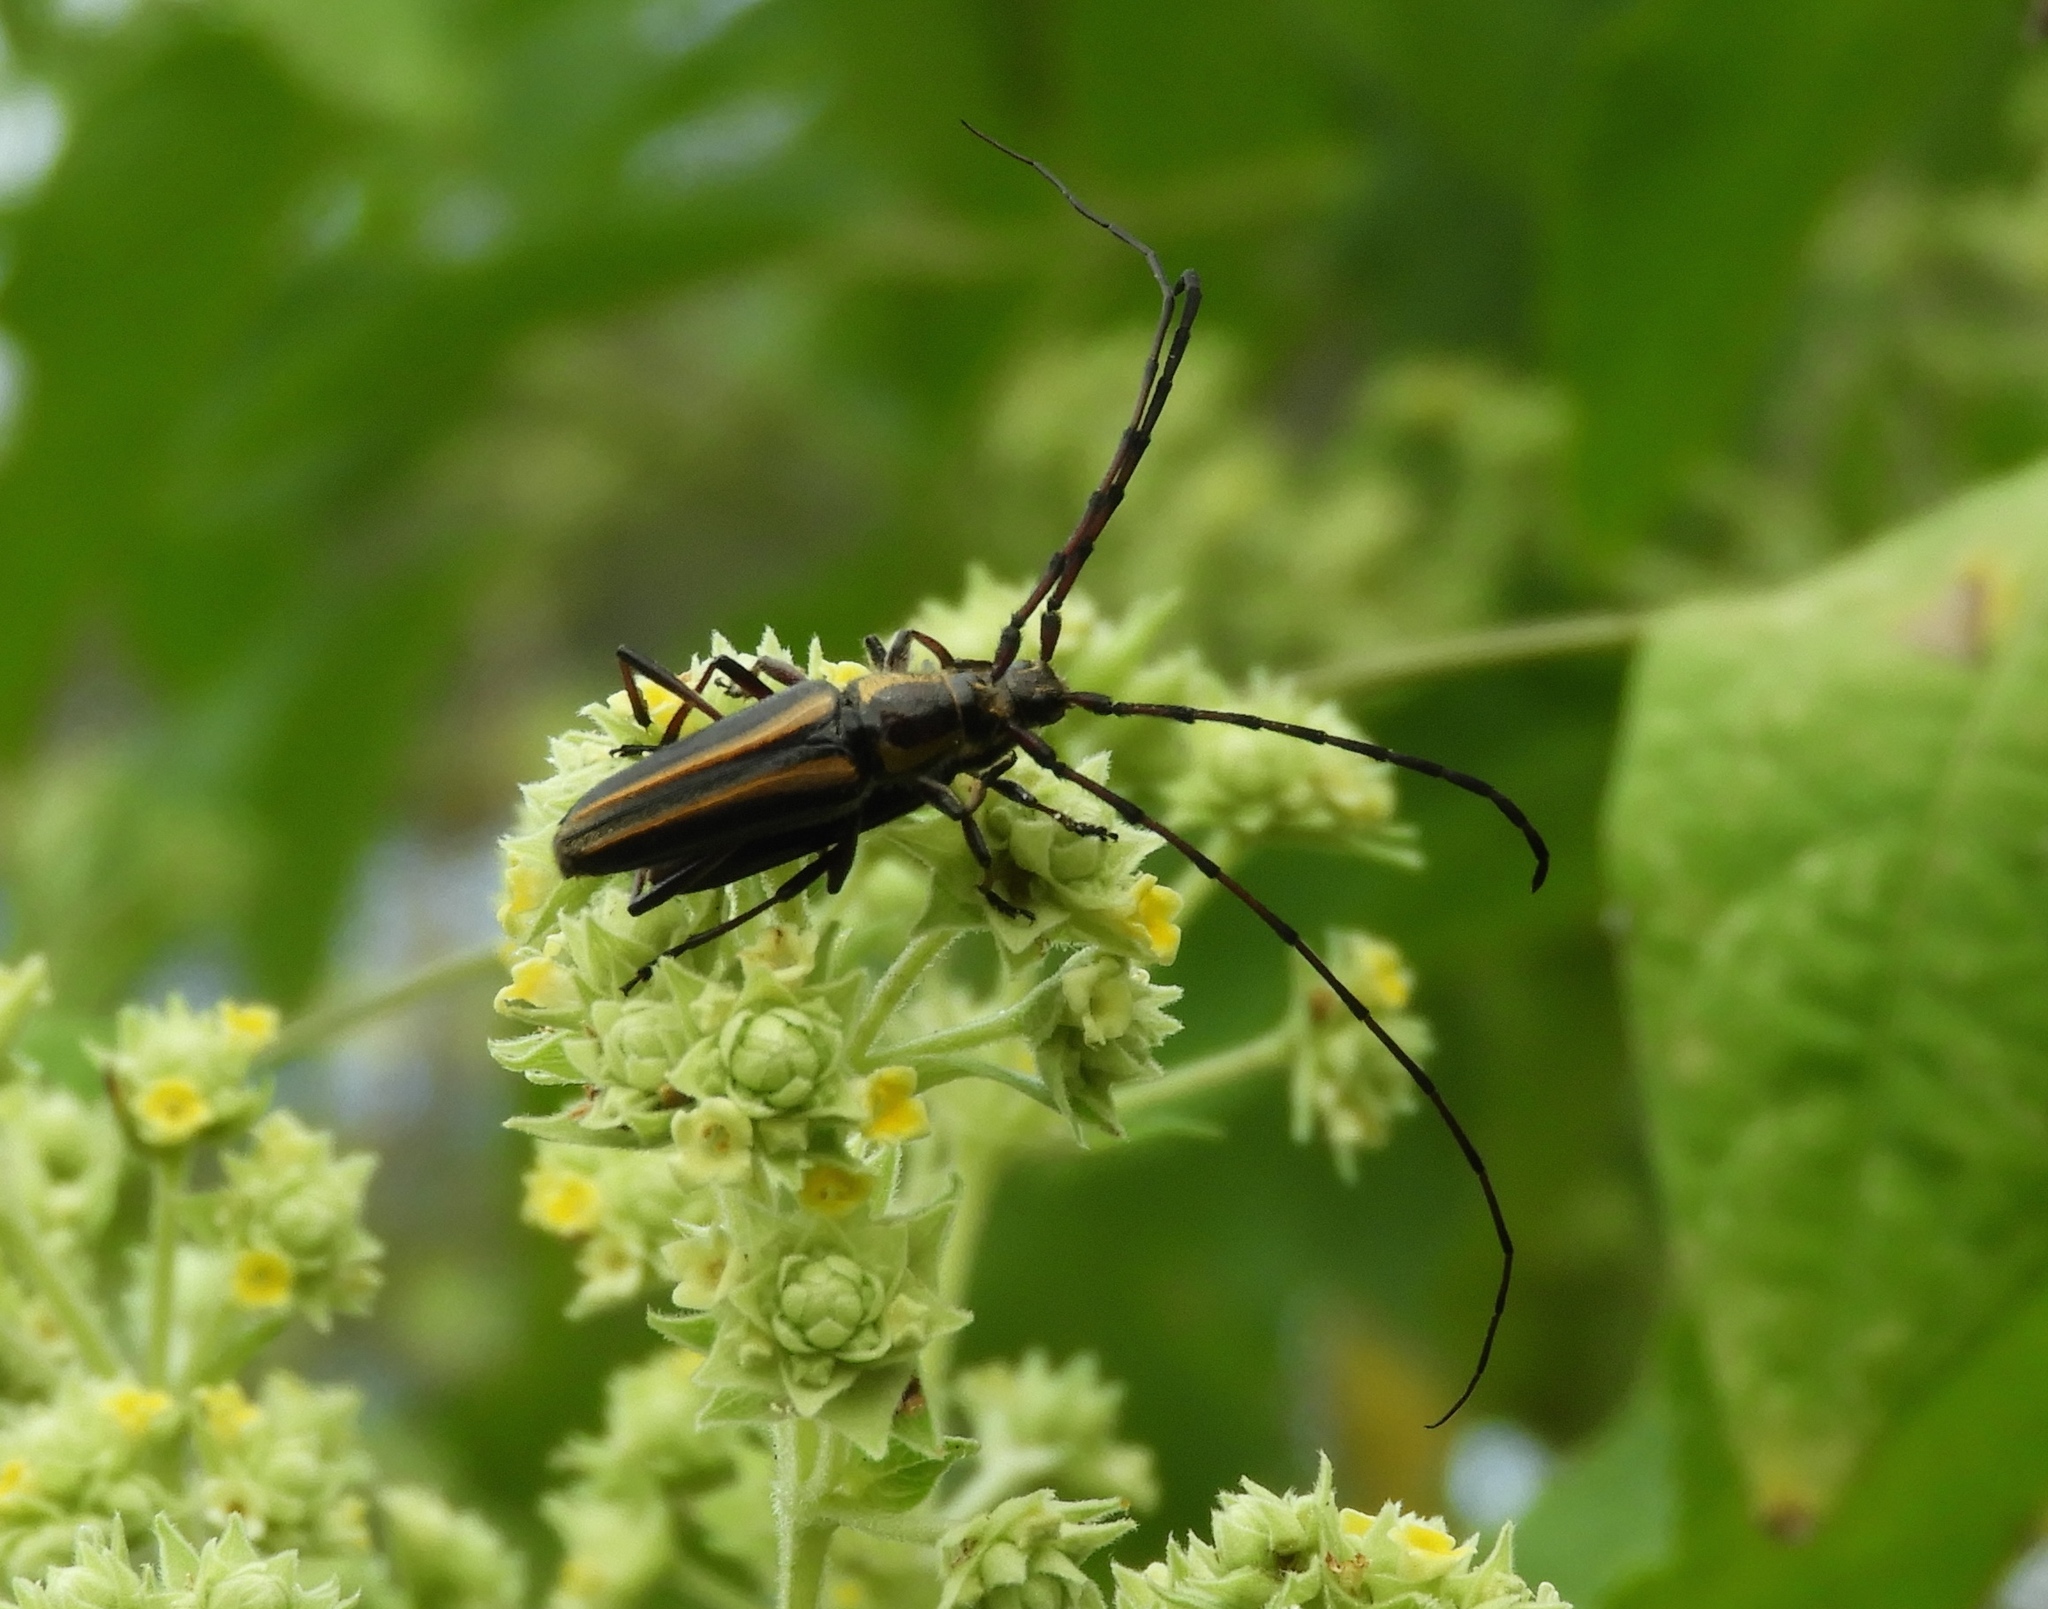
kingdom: Animalia
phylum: Arthropoda
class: Insecta
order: Coleoptera
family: Cerambycidae
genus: Sphaenothecus
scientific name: Sphaenothecus
